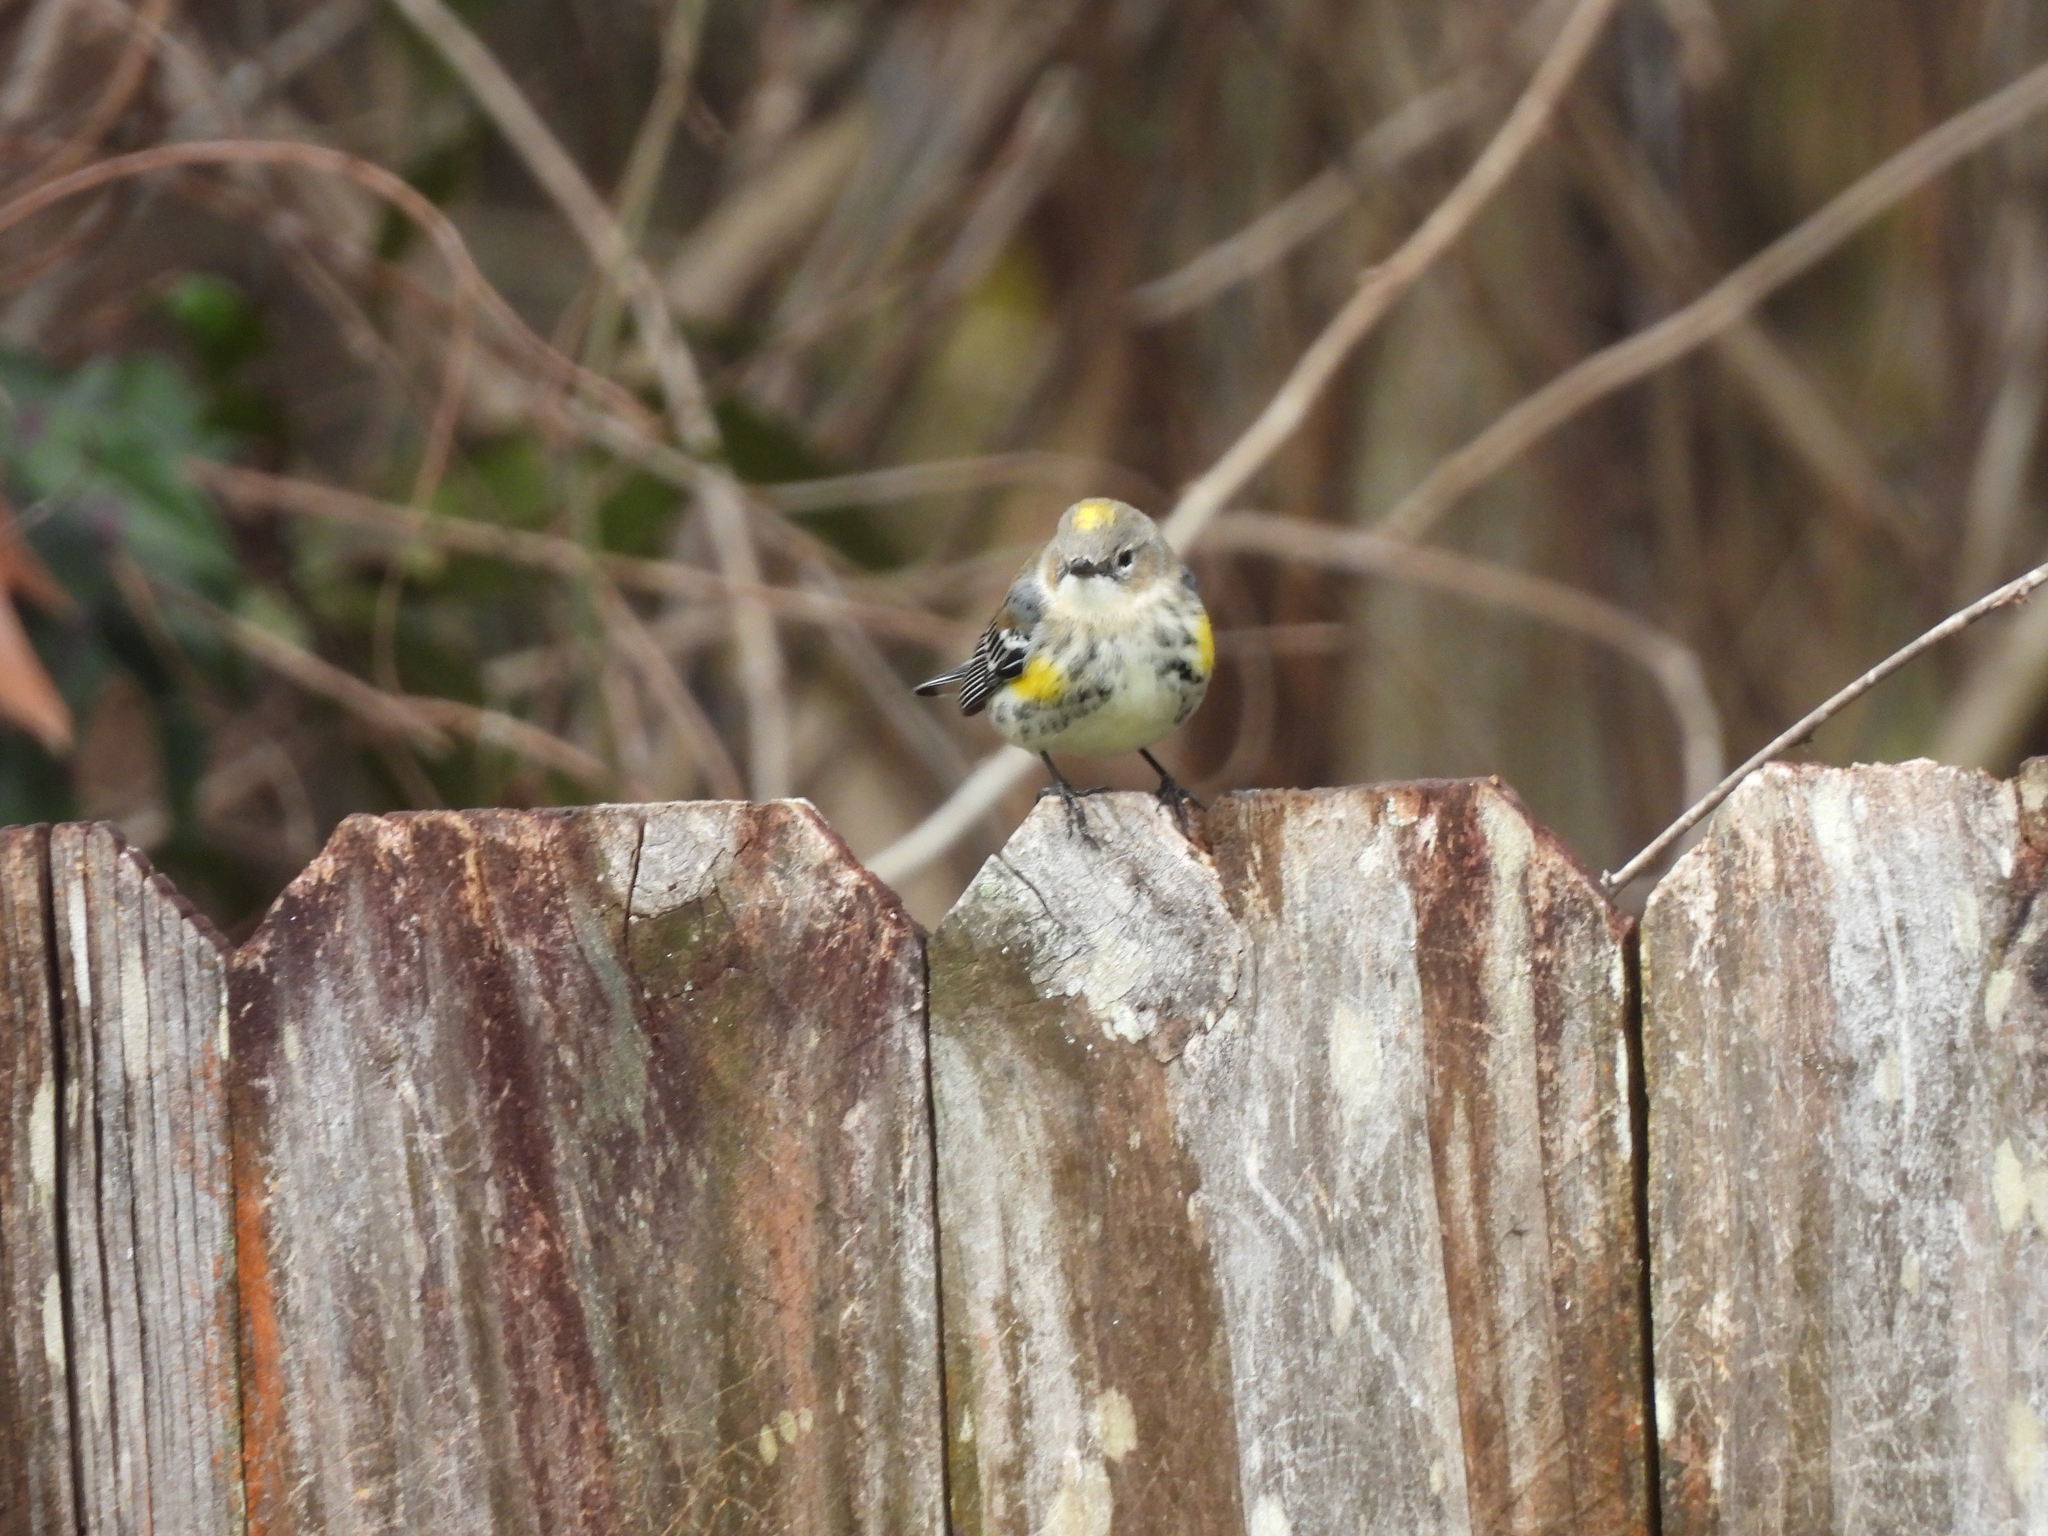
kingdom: Animalia
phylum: Chordata
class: Aves
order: Passeriformes
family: Parulidae
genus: Setophaga
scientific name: Setophaga coronata
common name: Myrtle warbler
